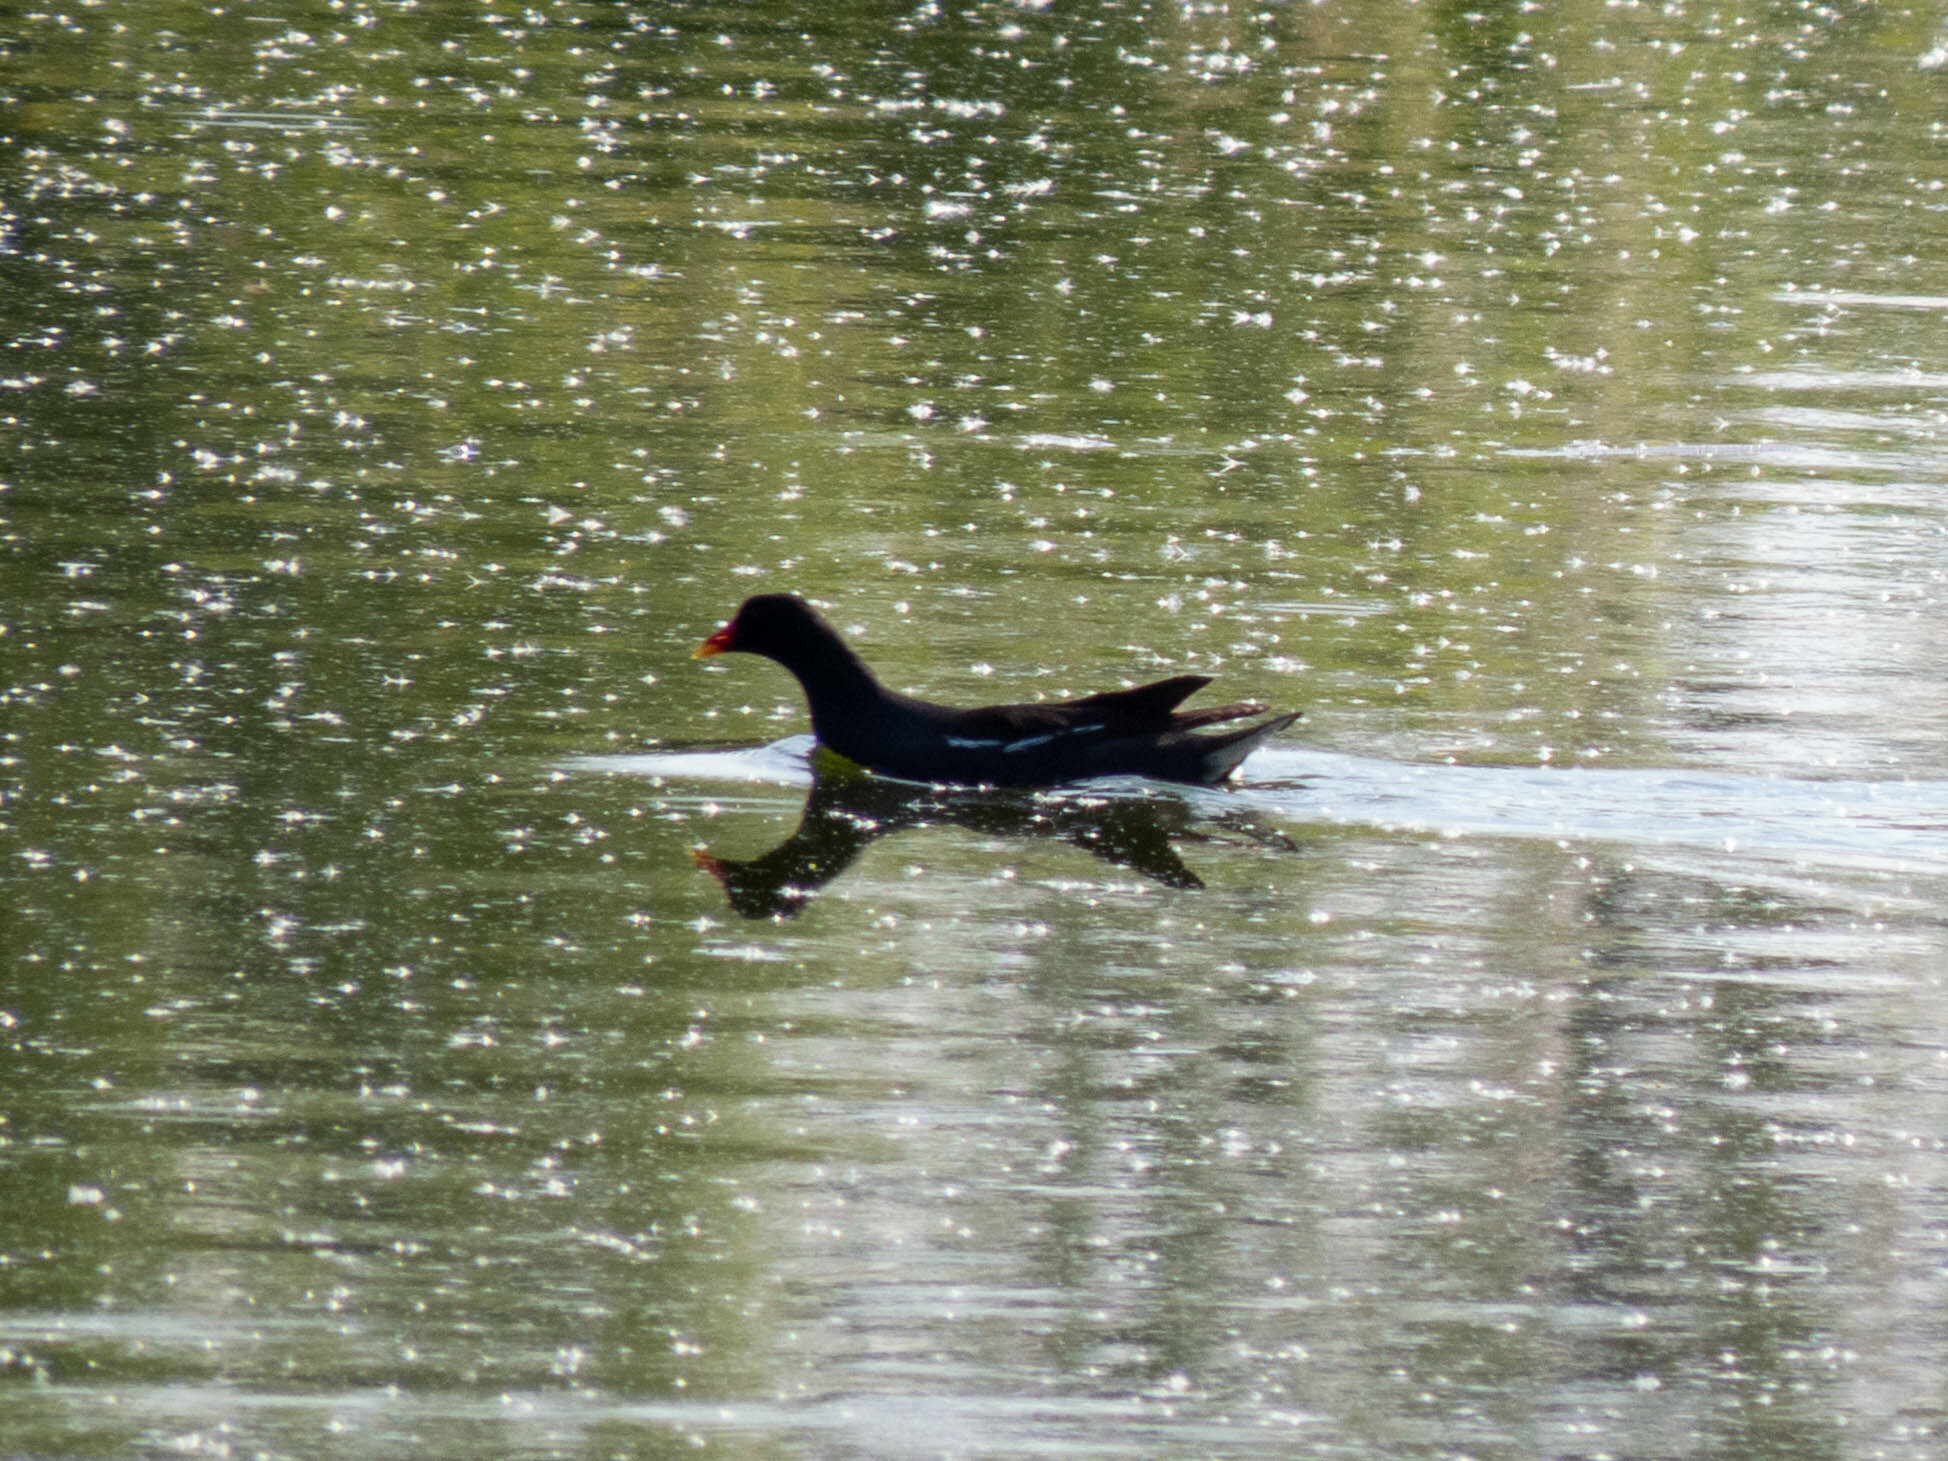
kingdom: Animalia
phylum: Chordata
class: Aves
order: Gruiformes
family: Rallidae
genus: Gallinula
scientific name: Gallinula chloropus
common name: Common moorhen
